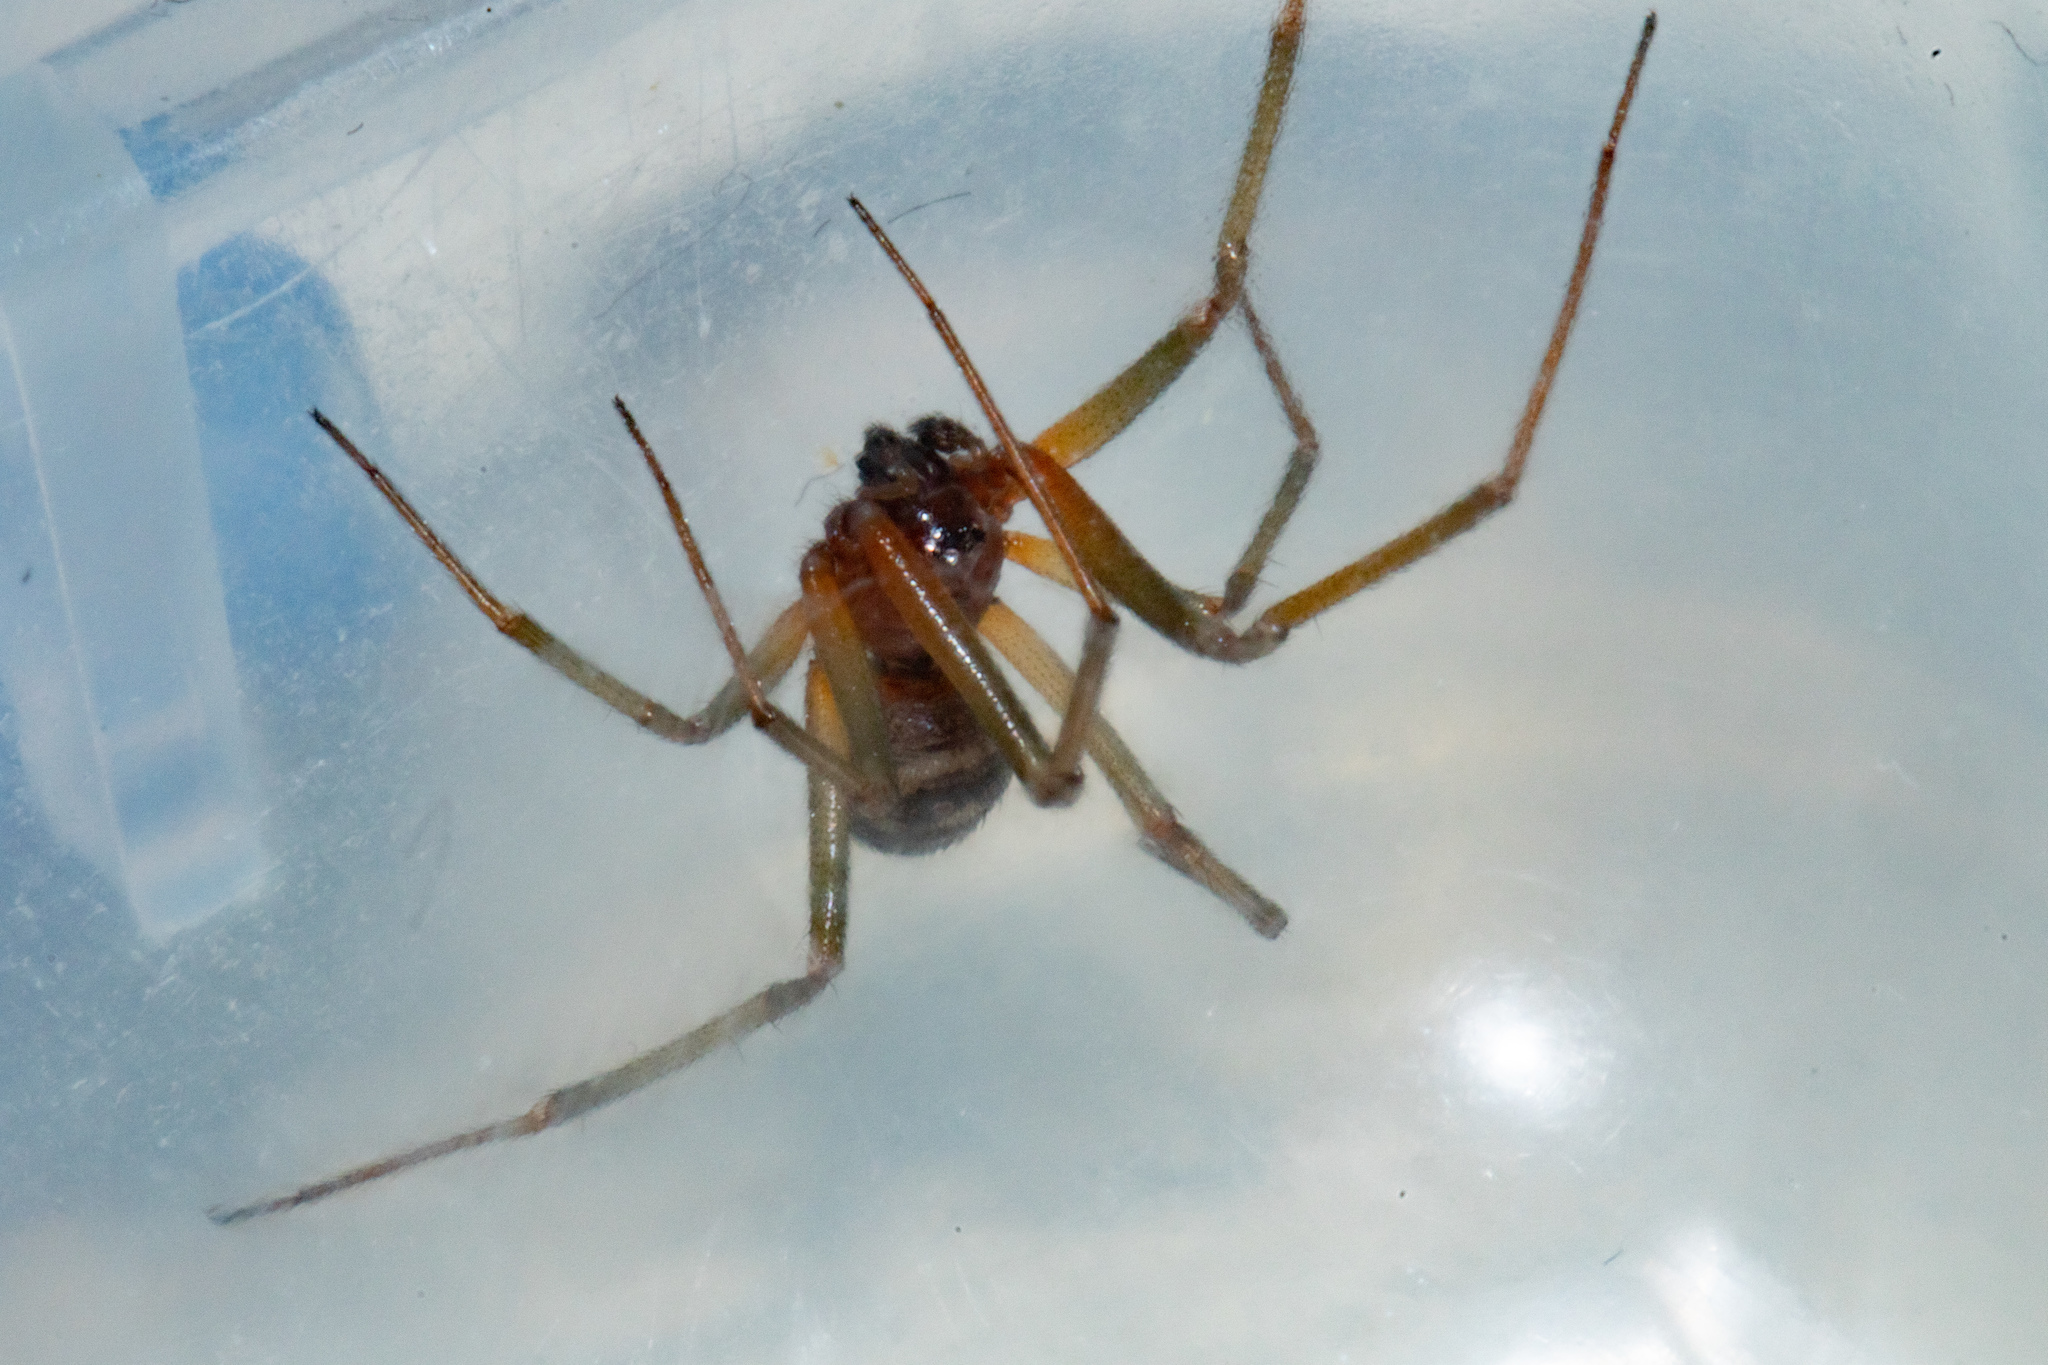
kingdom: Animalia
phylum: Arthropoda
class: Arachnida
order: Araneae
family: Theridiidae
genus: Steatoda
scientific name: Steatoda grossa
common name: False black widow
